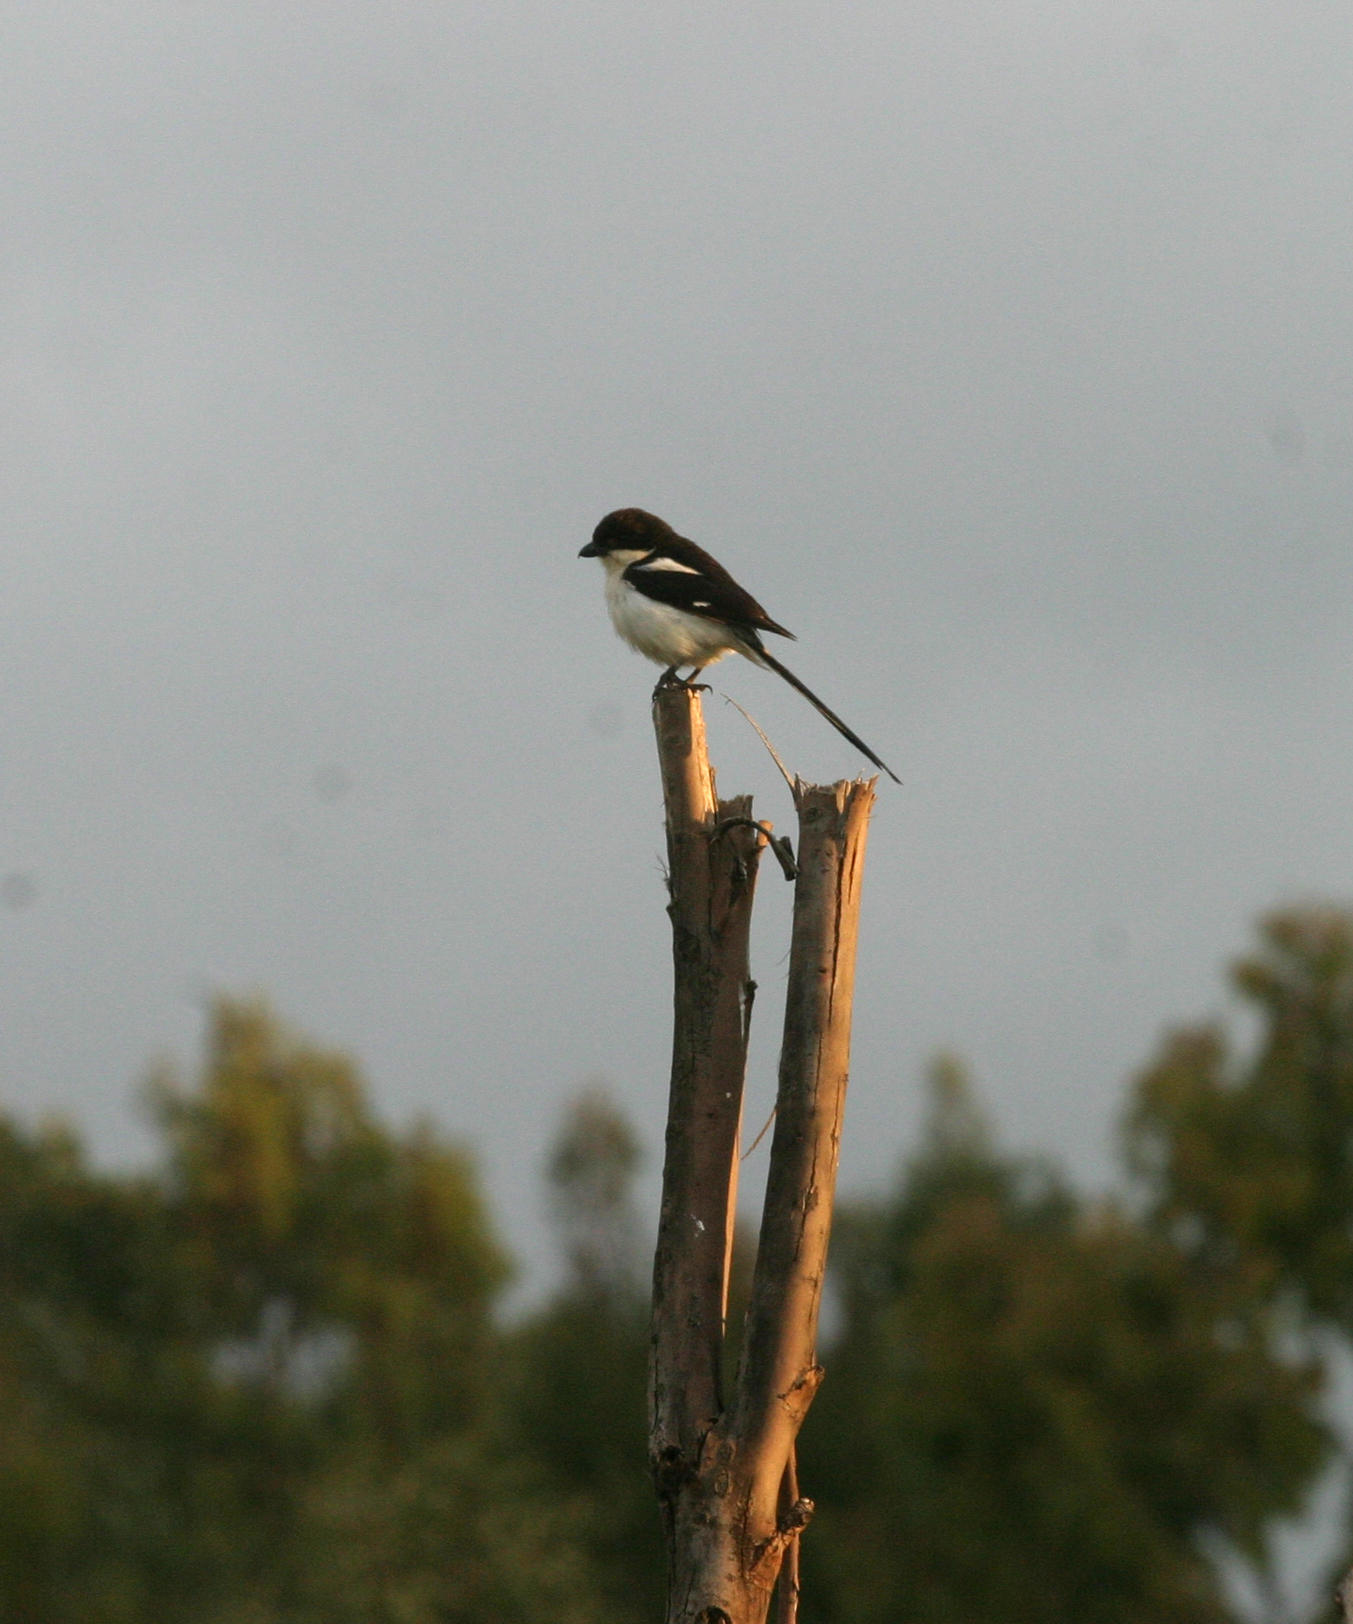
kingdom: Animalia
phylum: Chordata
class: Aves
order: Passeriformes
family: Laniidae
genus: Lanius
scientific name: Lanius humeralis
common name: Northern fiscal
